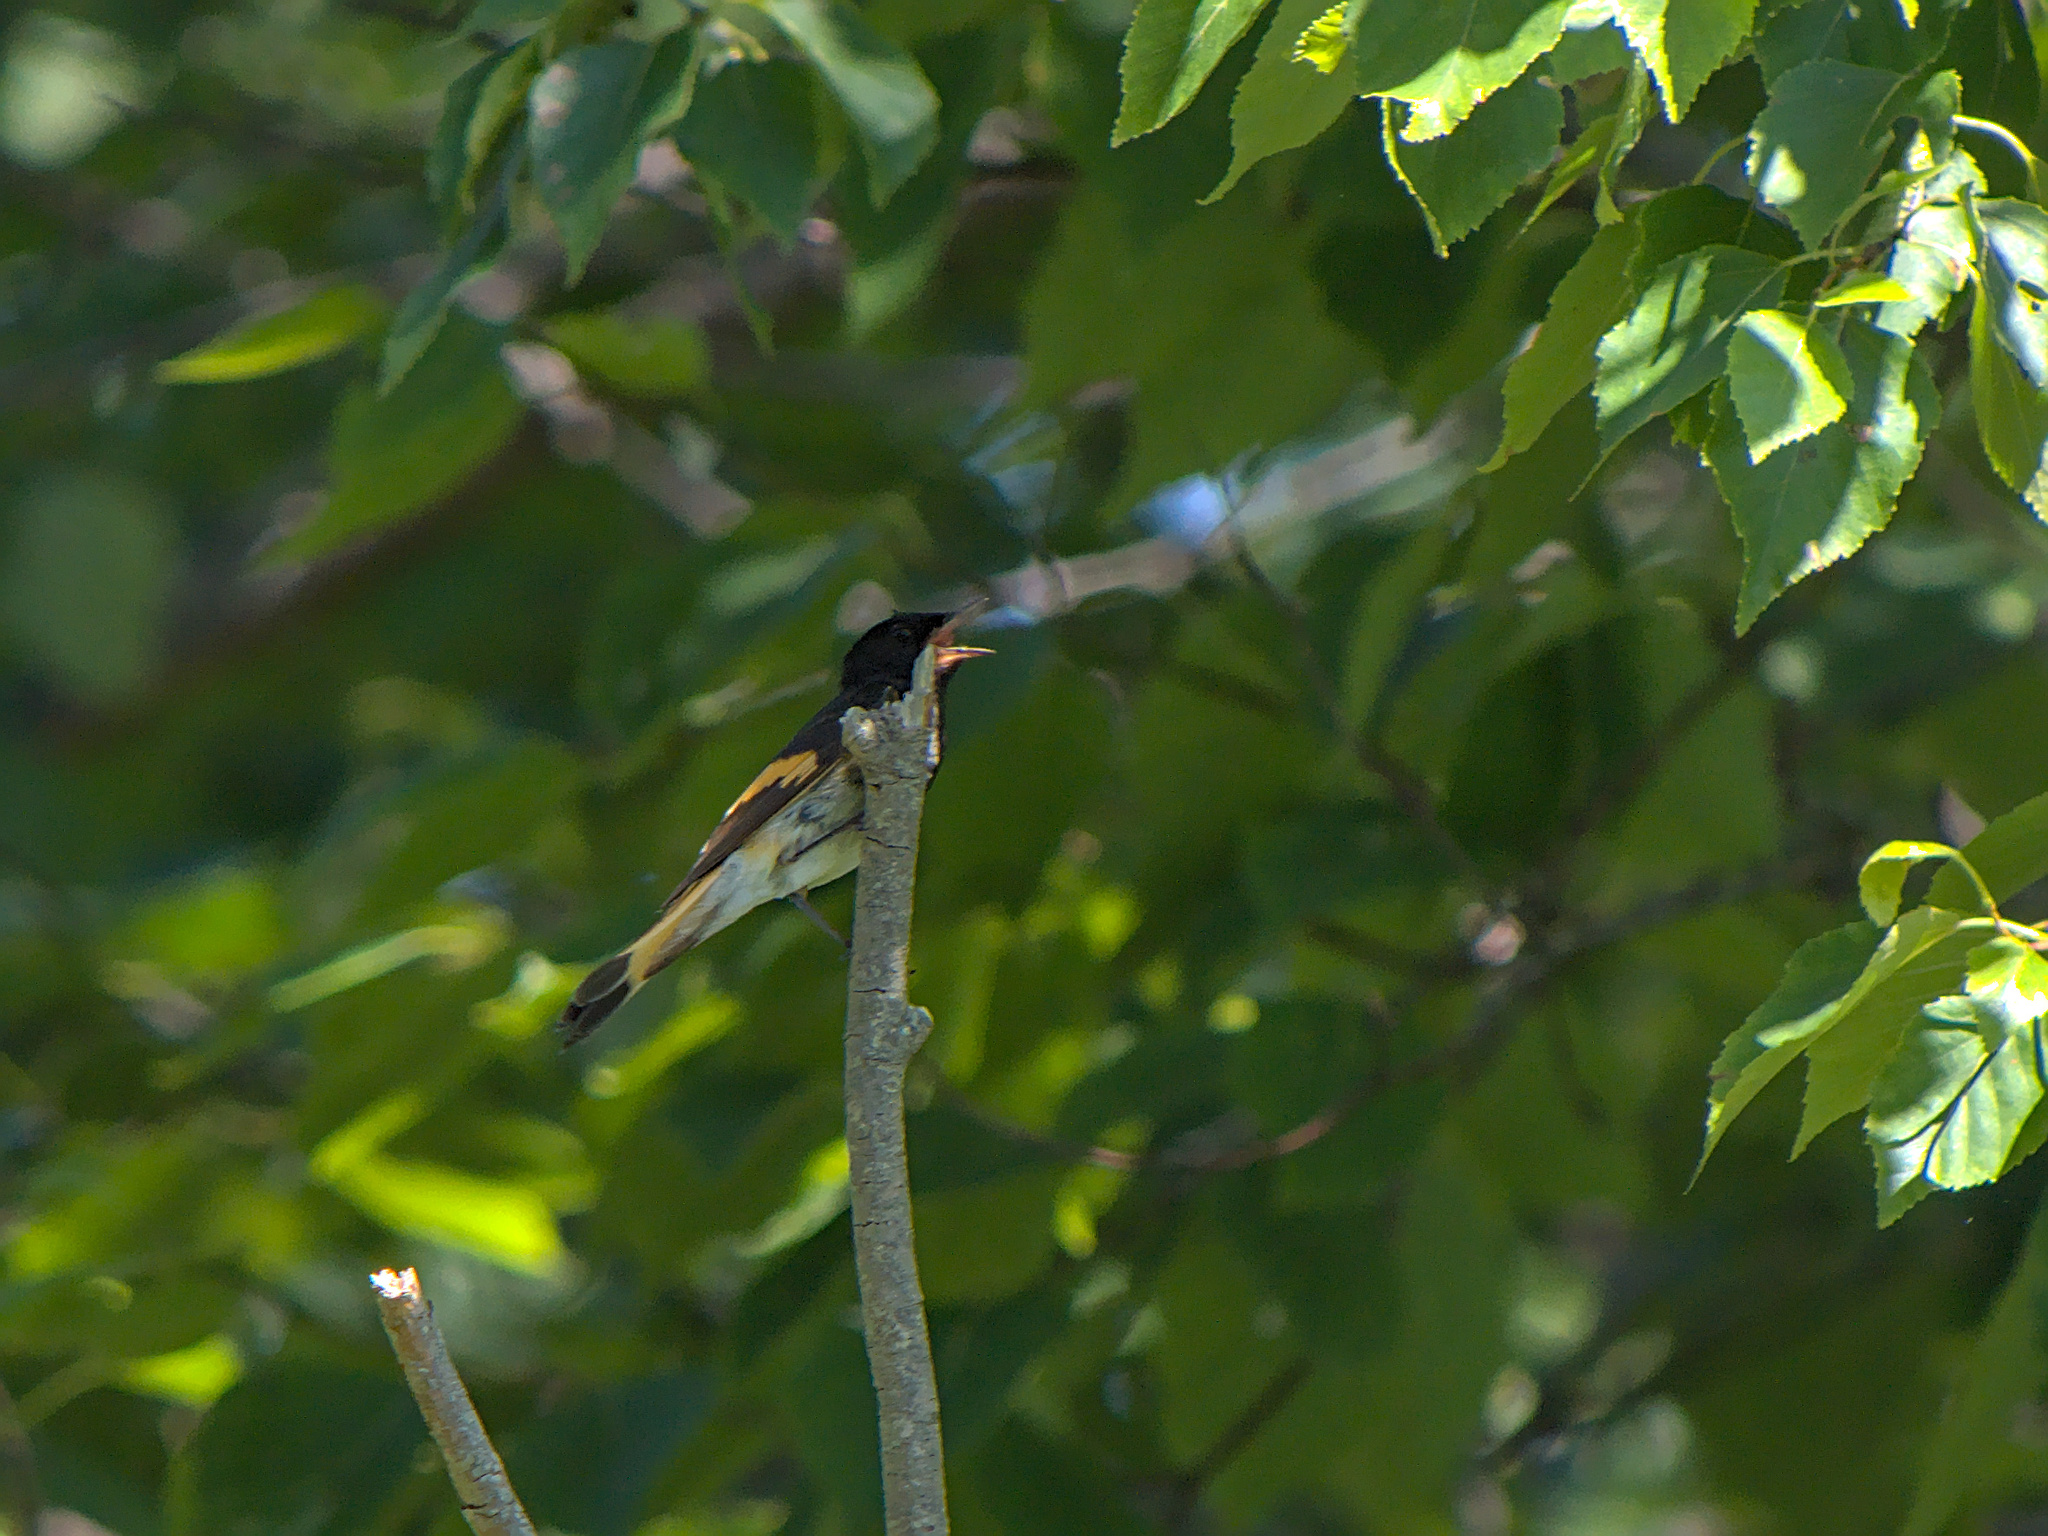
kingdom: Animalia
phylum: Chordata
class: Aves
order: Passeriformes
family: Parulidae
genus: Setophaga
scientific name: Setophaga ruticilla
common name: American redstart
